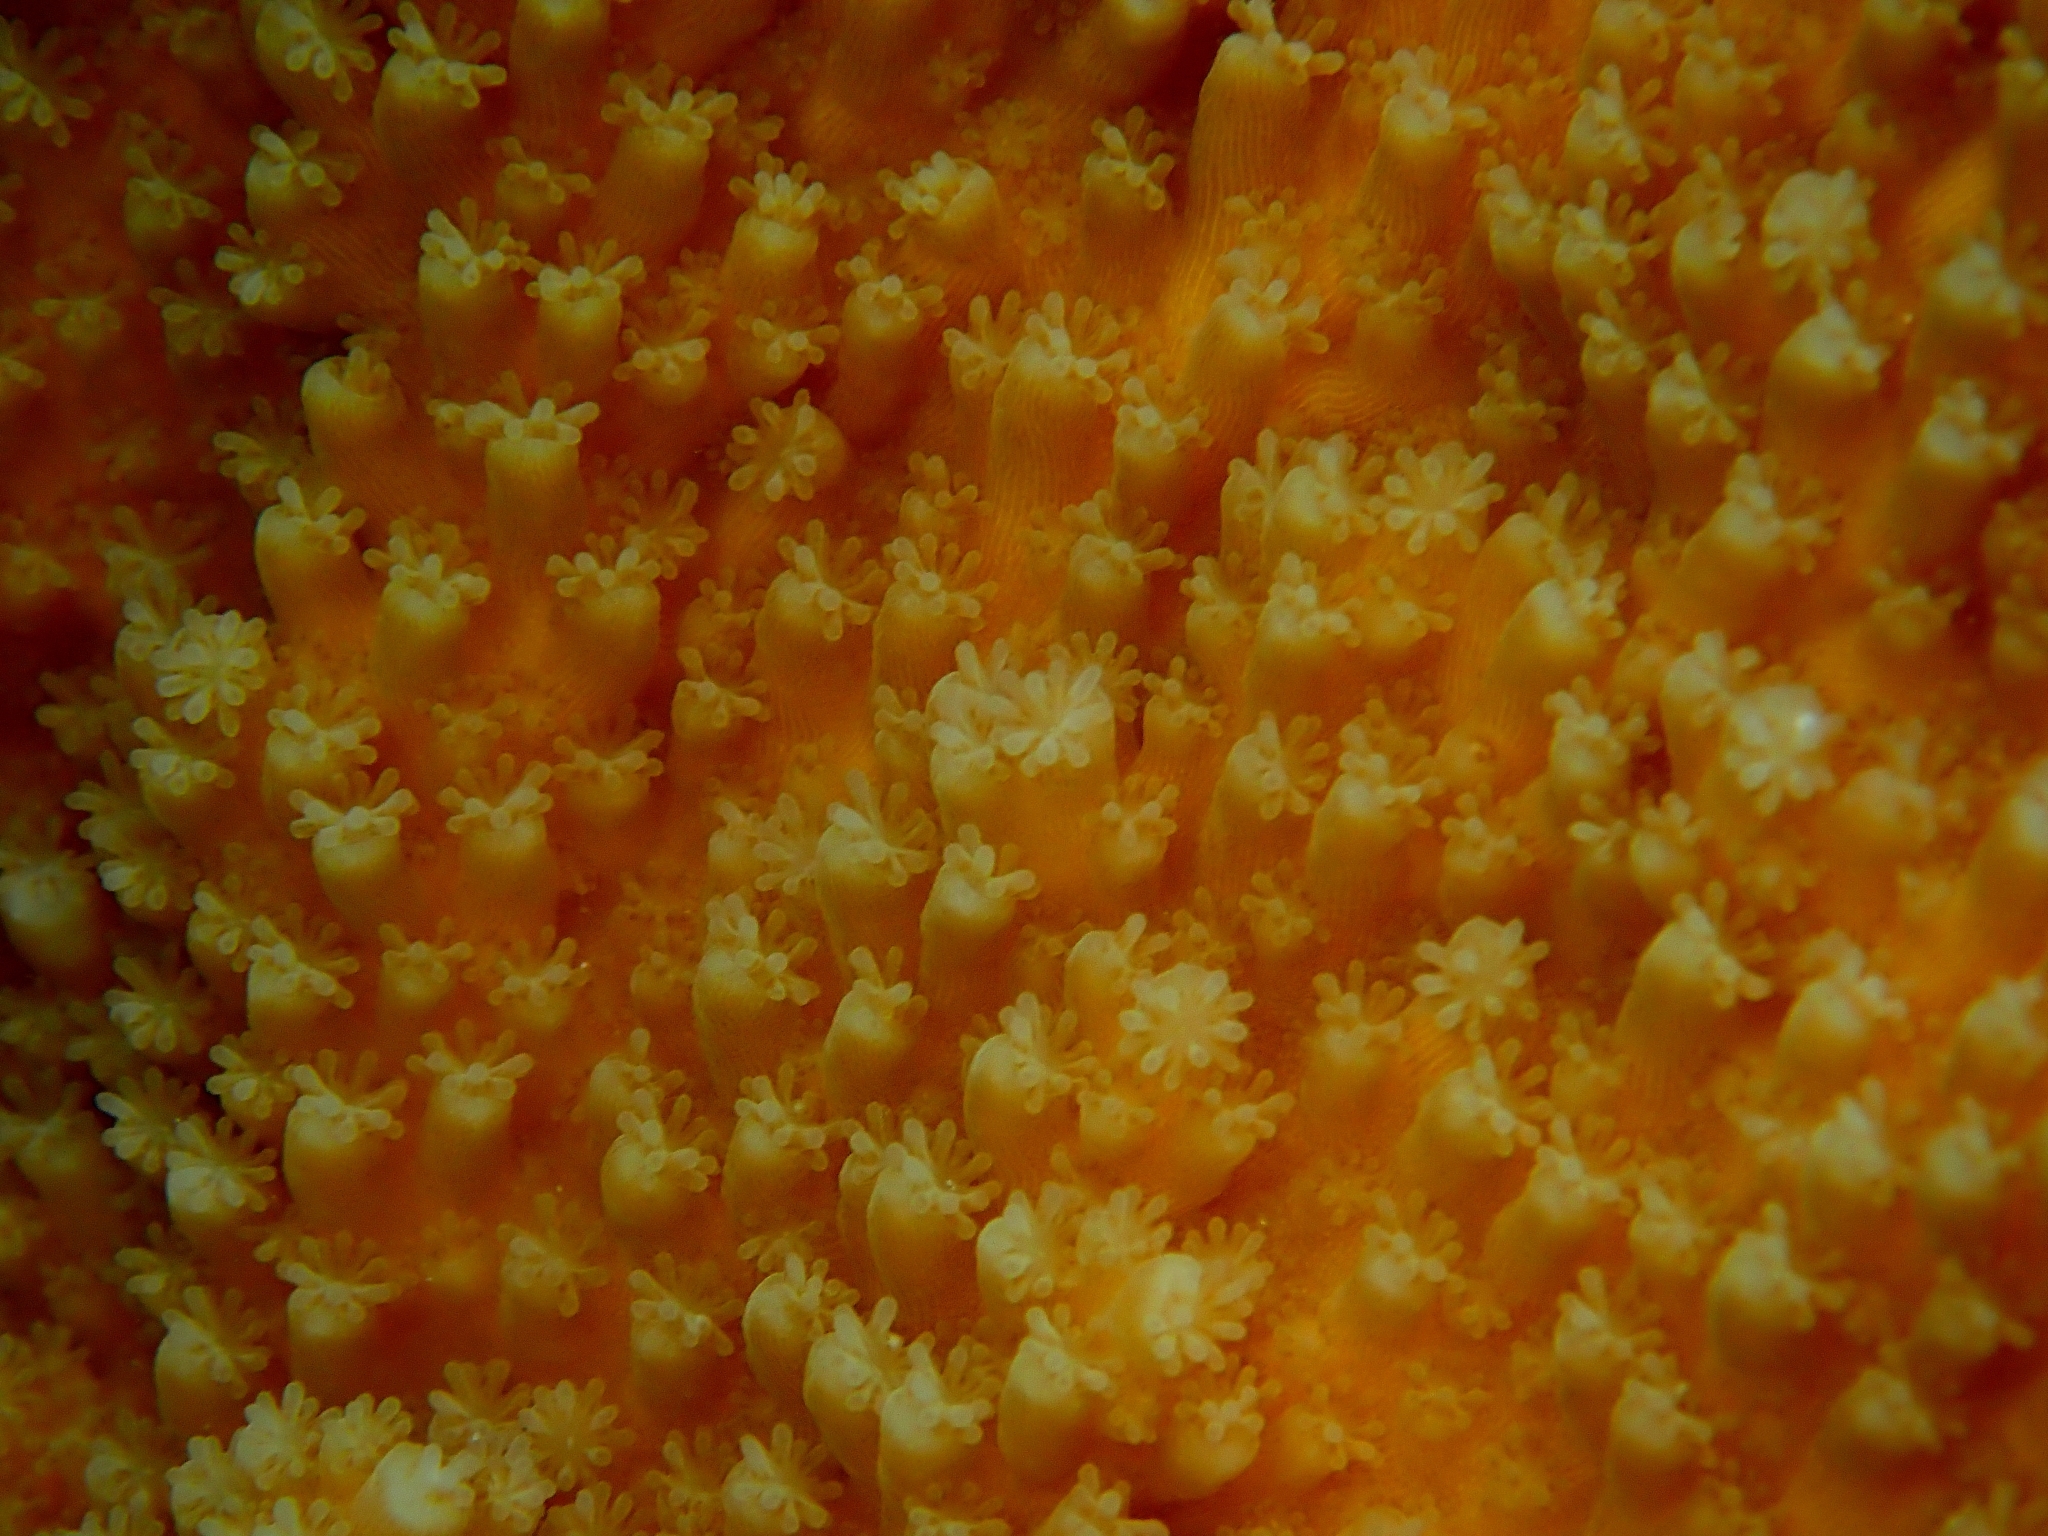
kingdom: Animalia
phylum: Cnidaria
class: Anthozoa
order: Scleractinia
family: Acroporidae
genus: Acropora
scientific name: Acropora palmata
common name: Elkhorn coral
